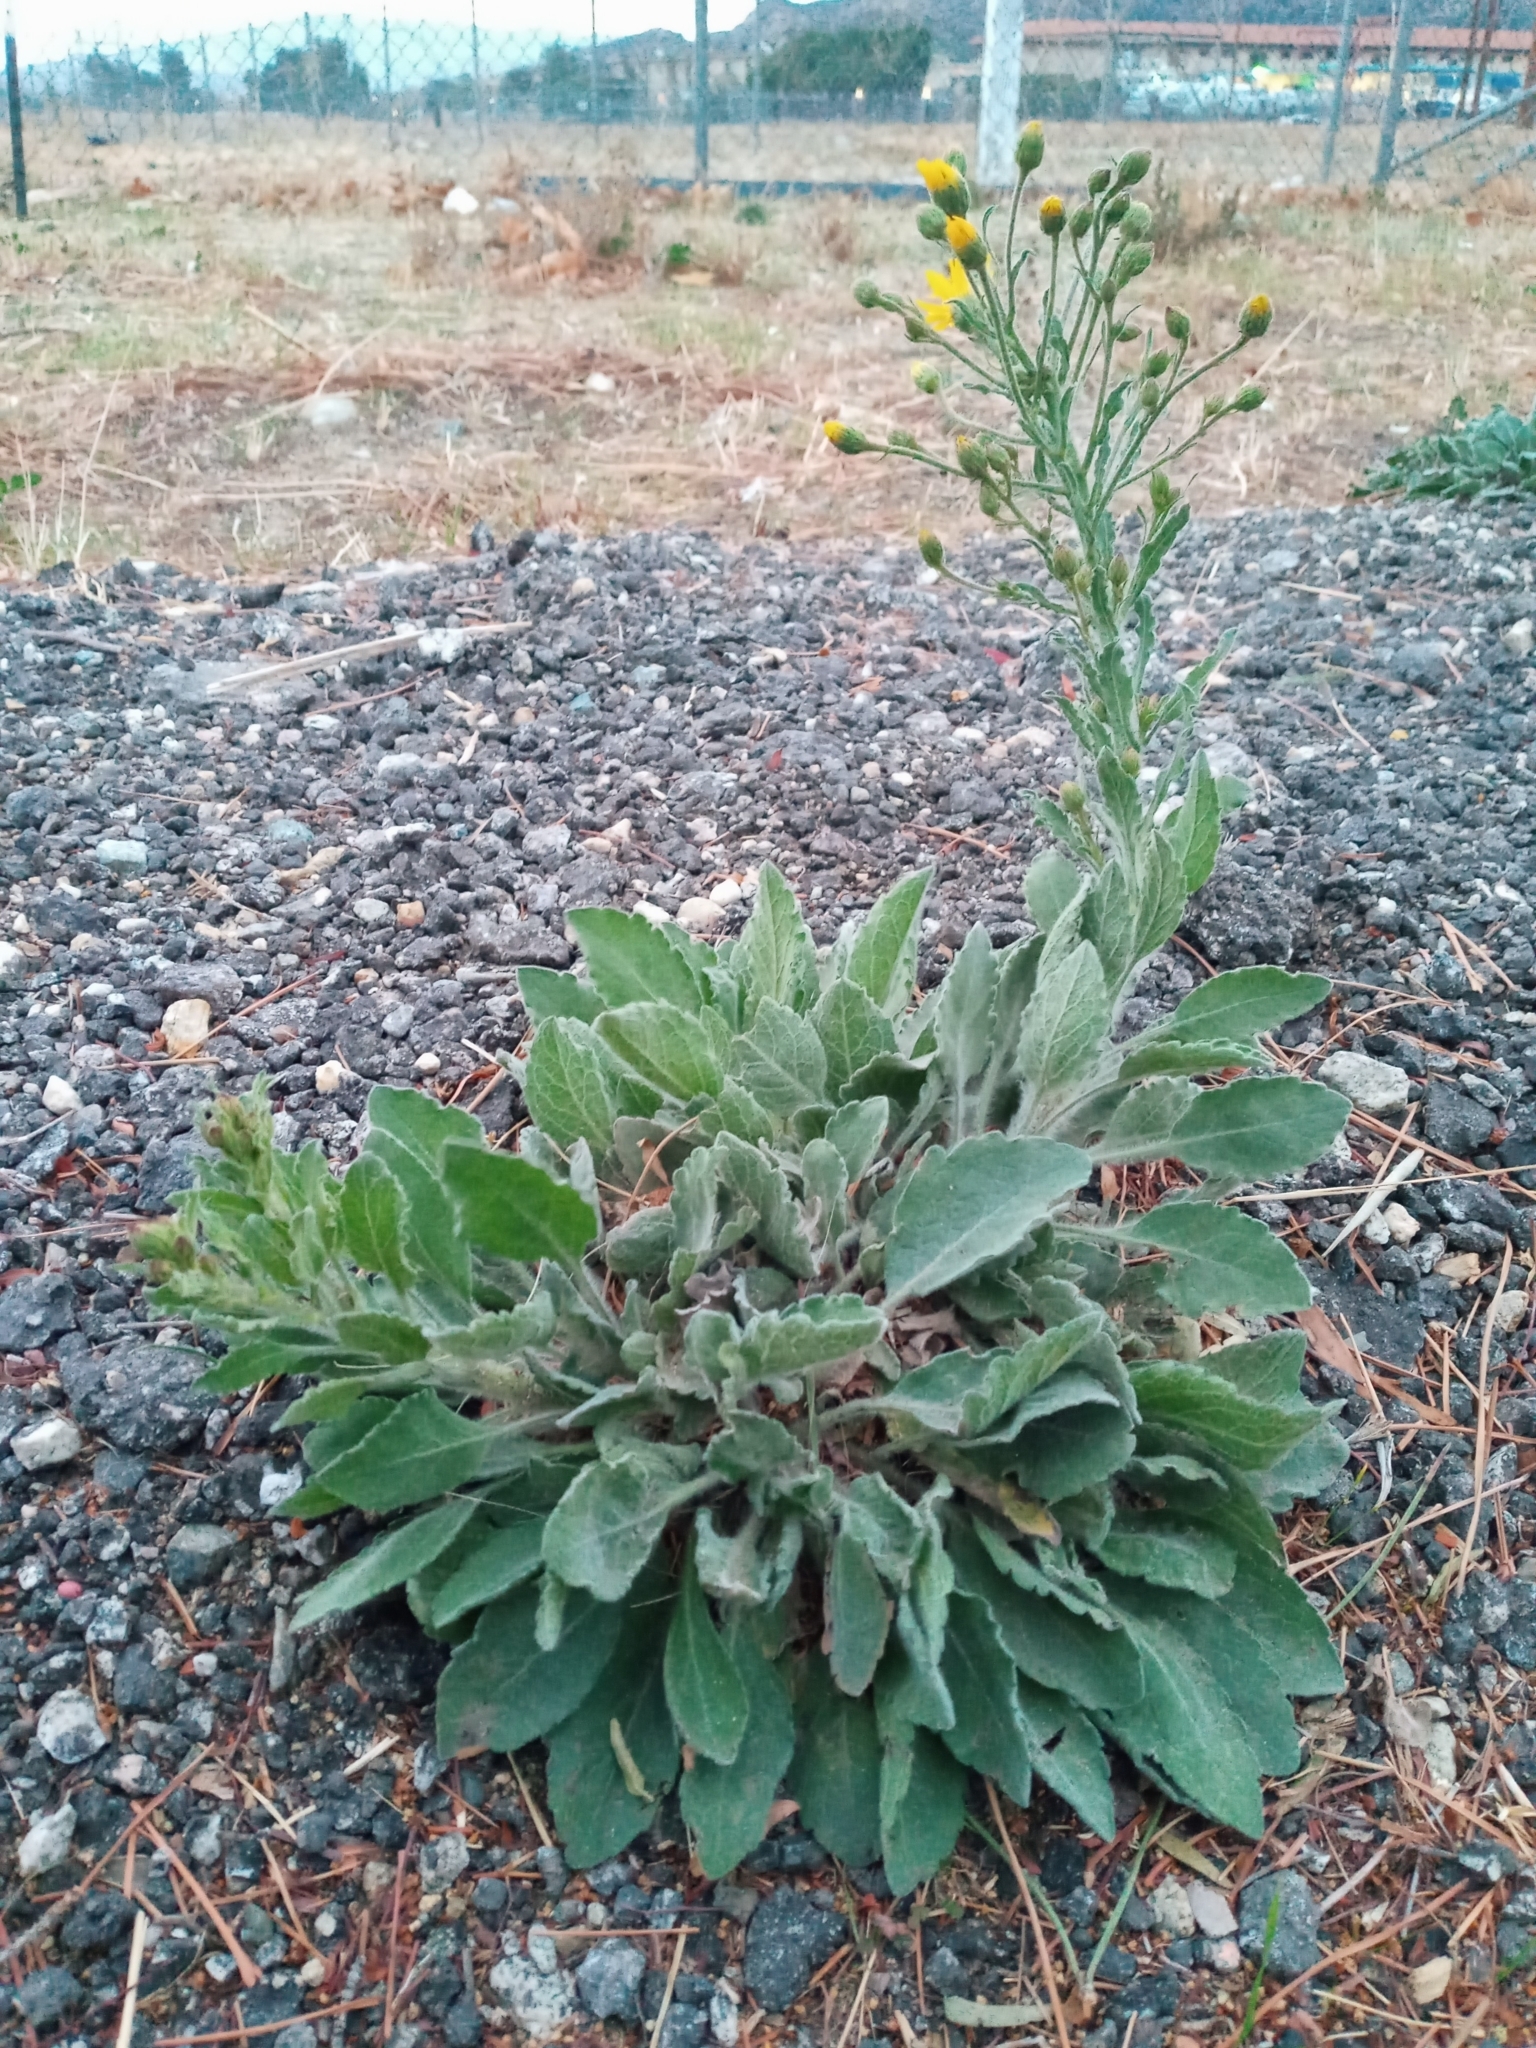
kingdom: Plantae
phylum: Tracheophyta
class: Magnoliopsida
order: Asterales
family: Asteraceae
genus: Heterotheca
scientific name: Heterotheca grandiflora
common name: Telegraphweed
